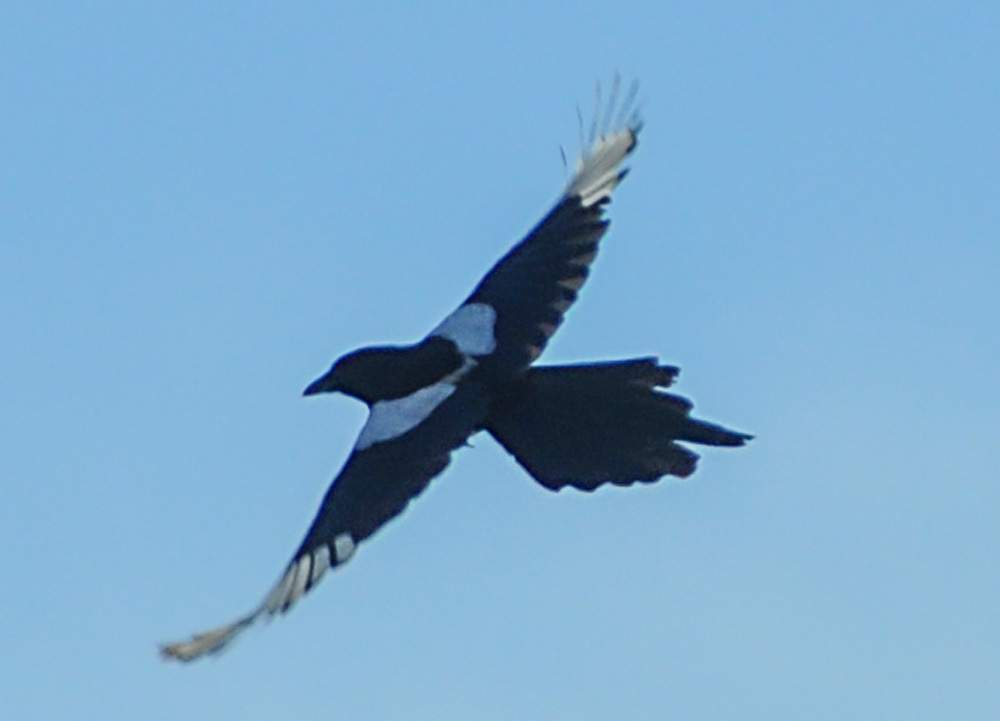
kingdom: Animalia
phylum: Chordata
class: Aves
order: Passeriformes
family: Corvidae
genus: Pica
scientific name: Pica pica
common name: Eurasian magpie
